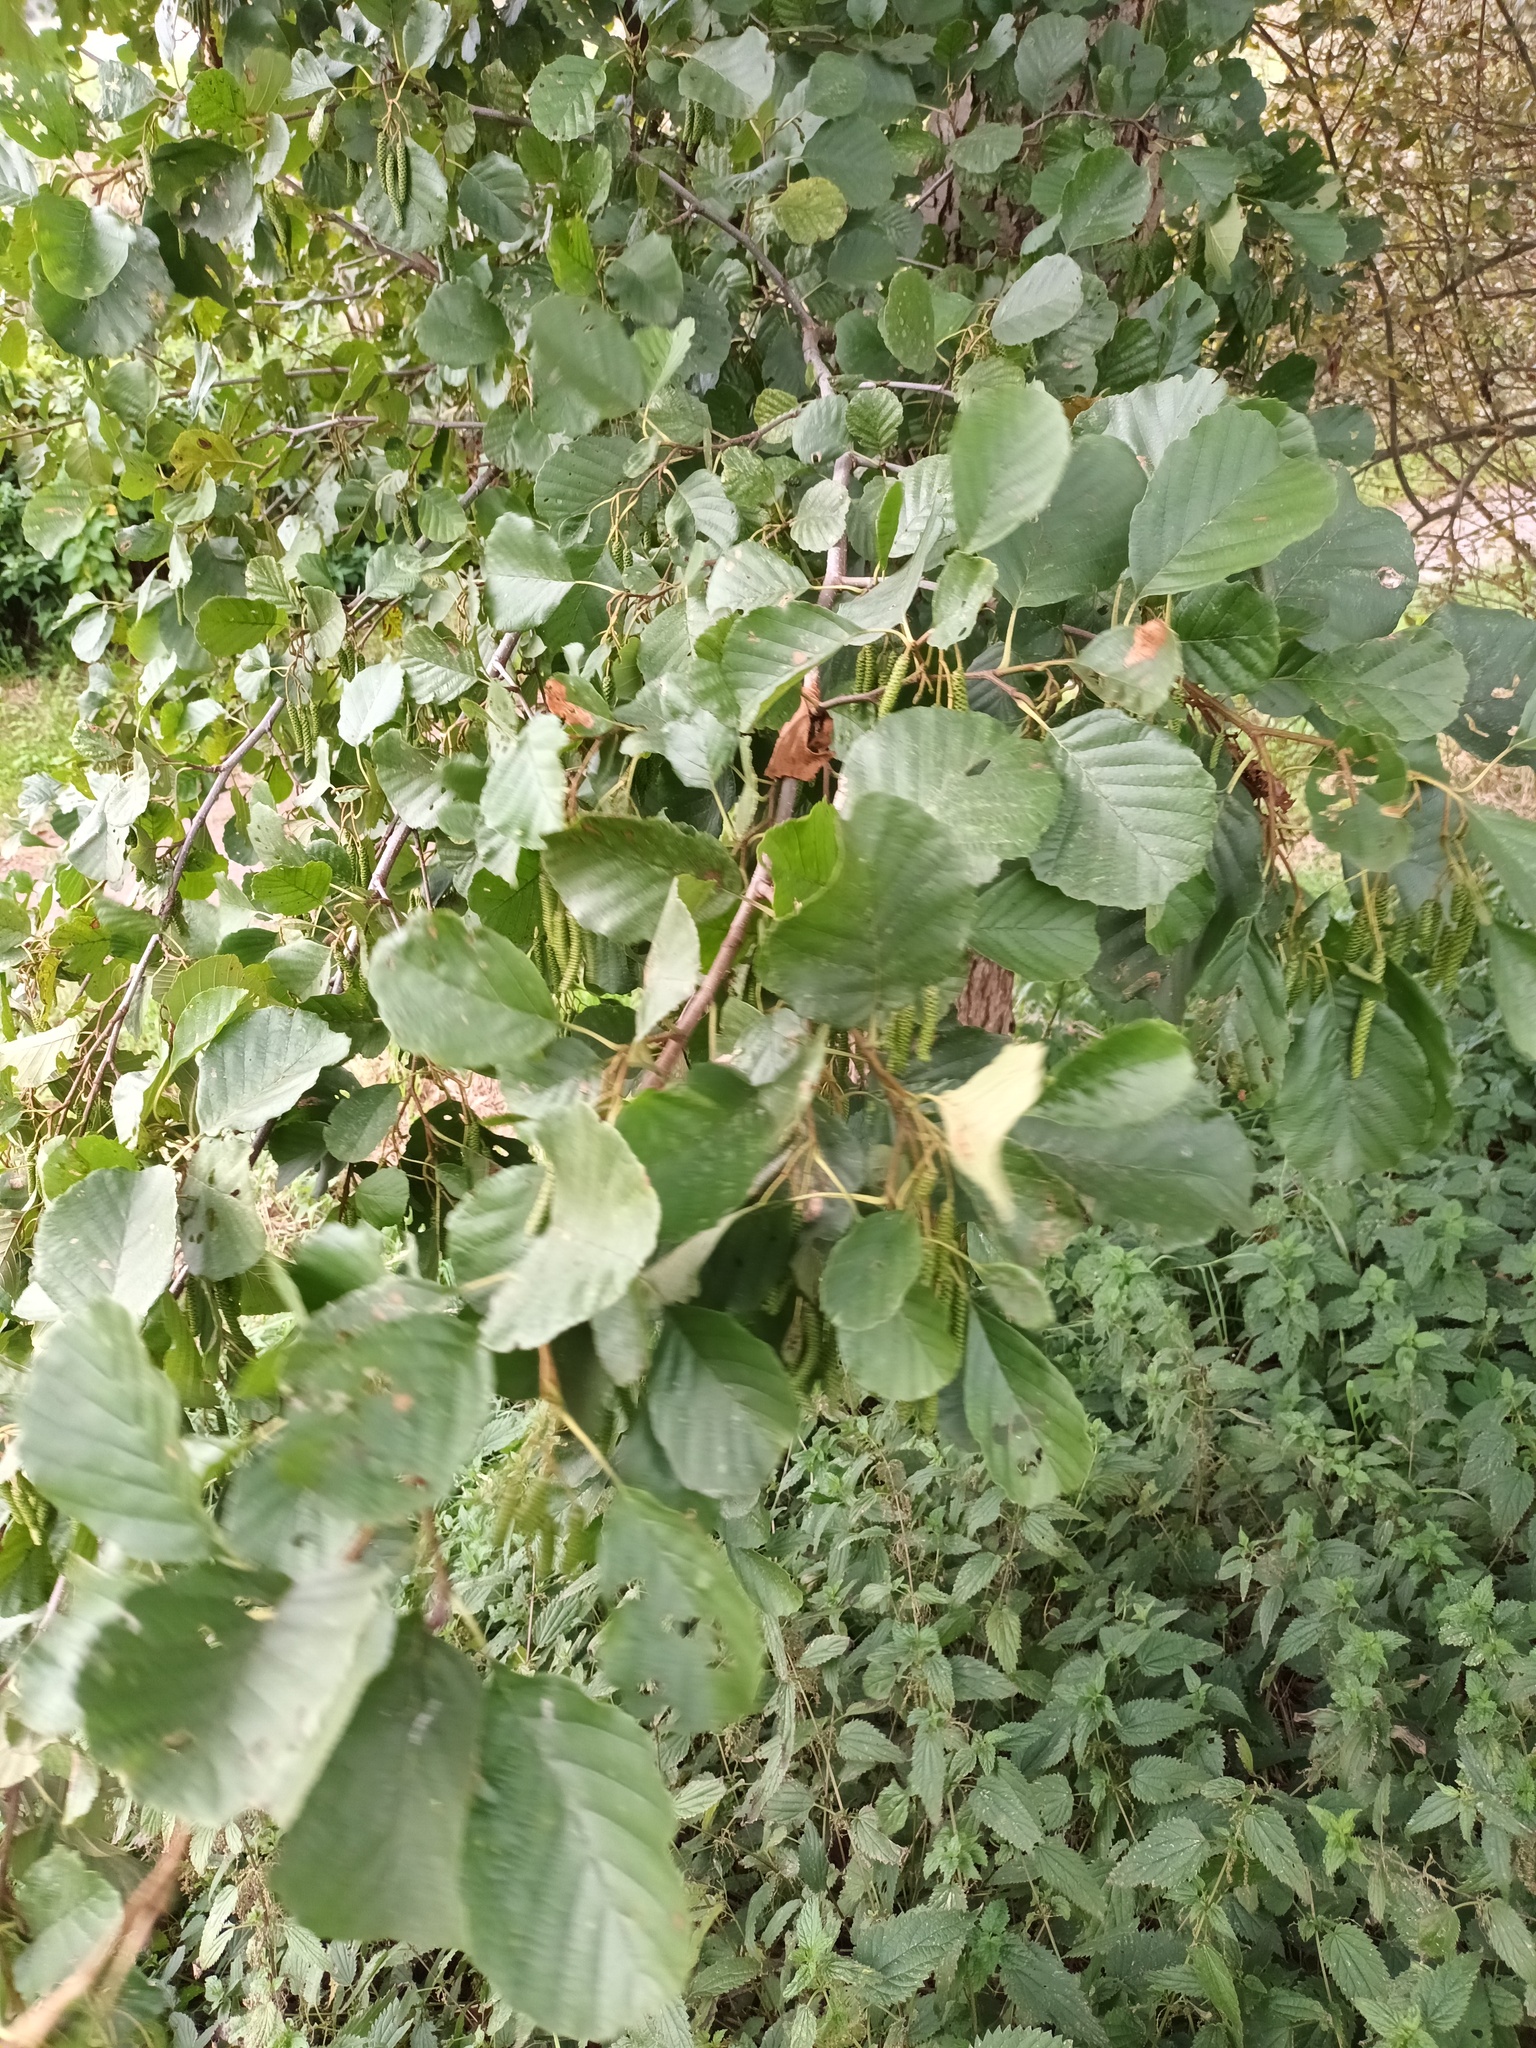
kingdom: Plantae
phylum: Tracheophyta
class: Magnoliopsida
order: Fagales
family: Betulaceae
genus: Alnus
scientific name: Alnus glutinosa
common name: Black alder
